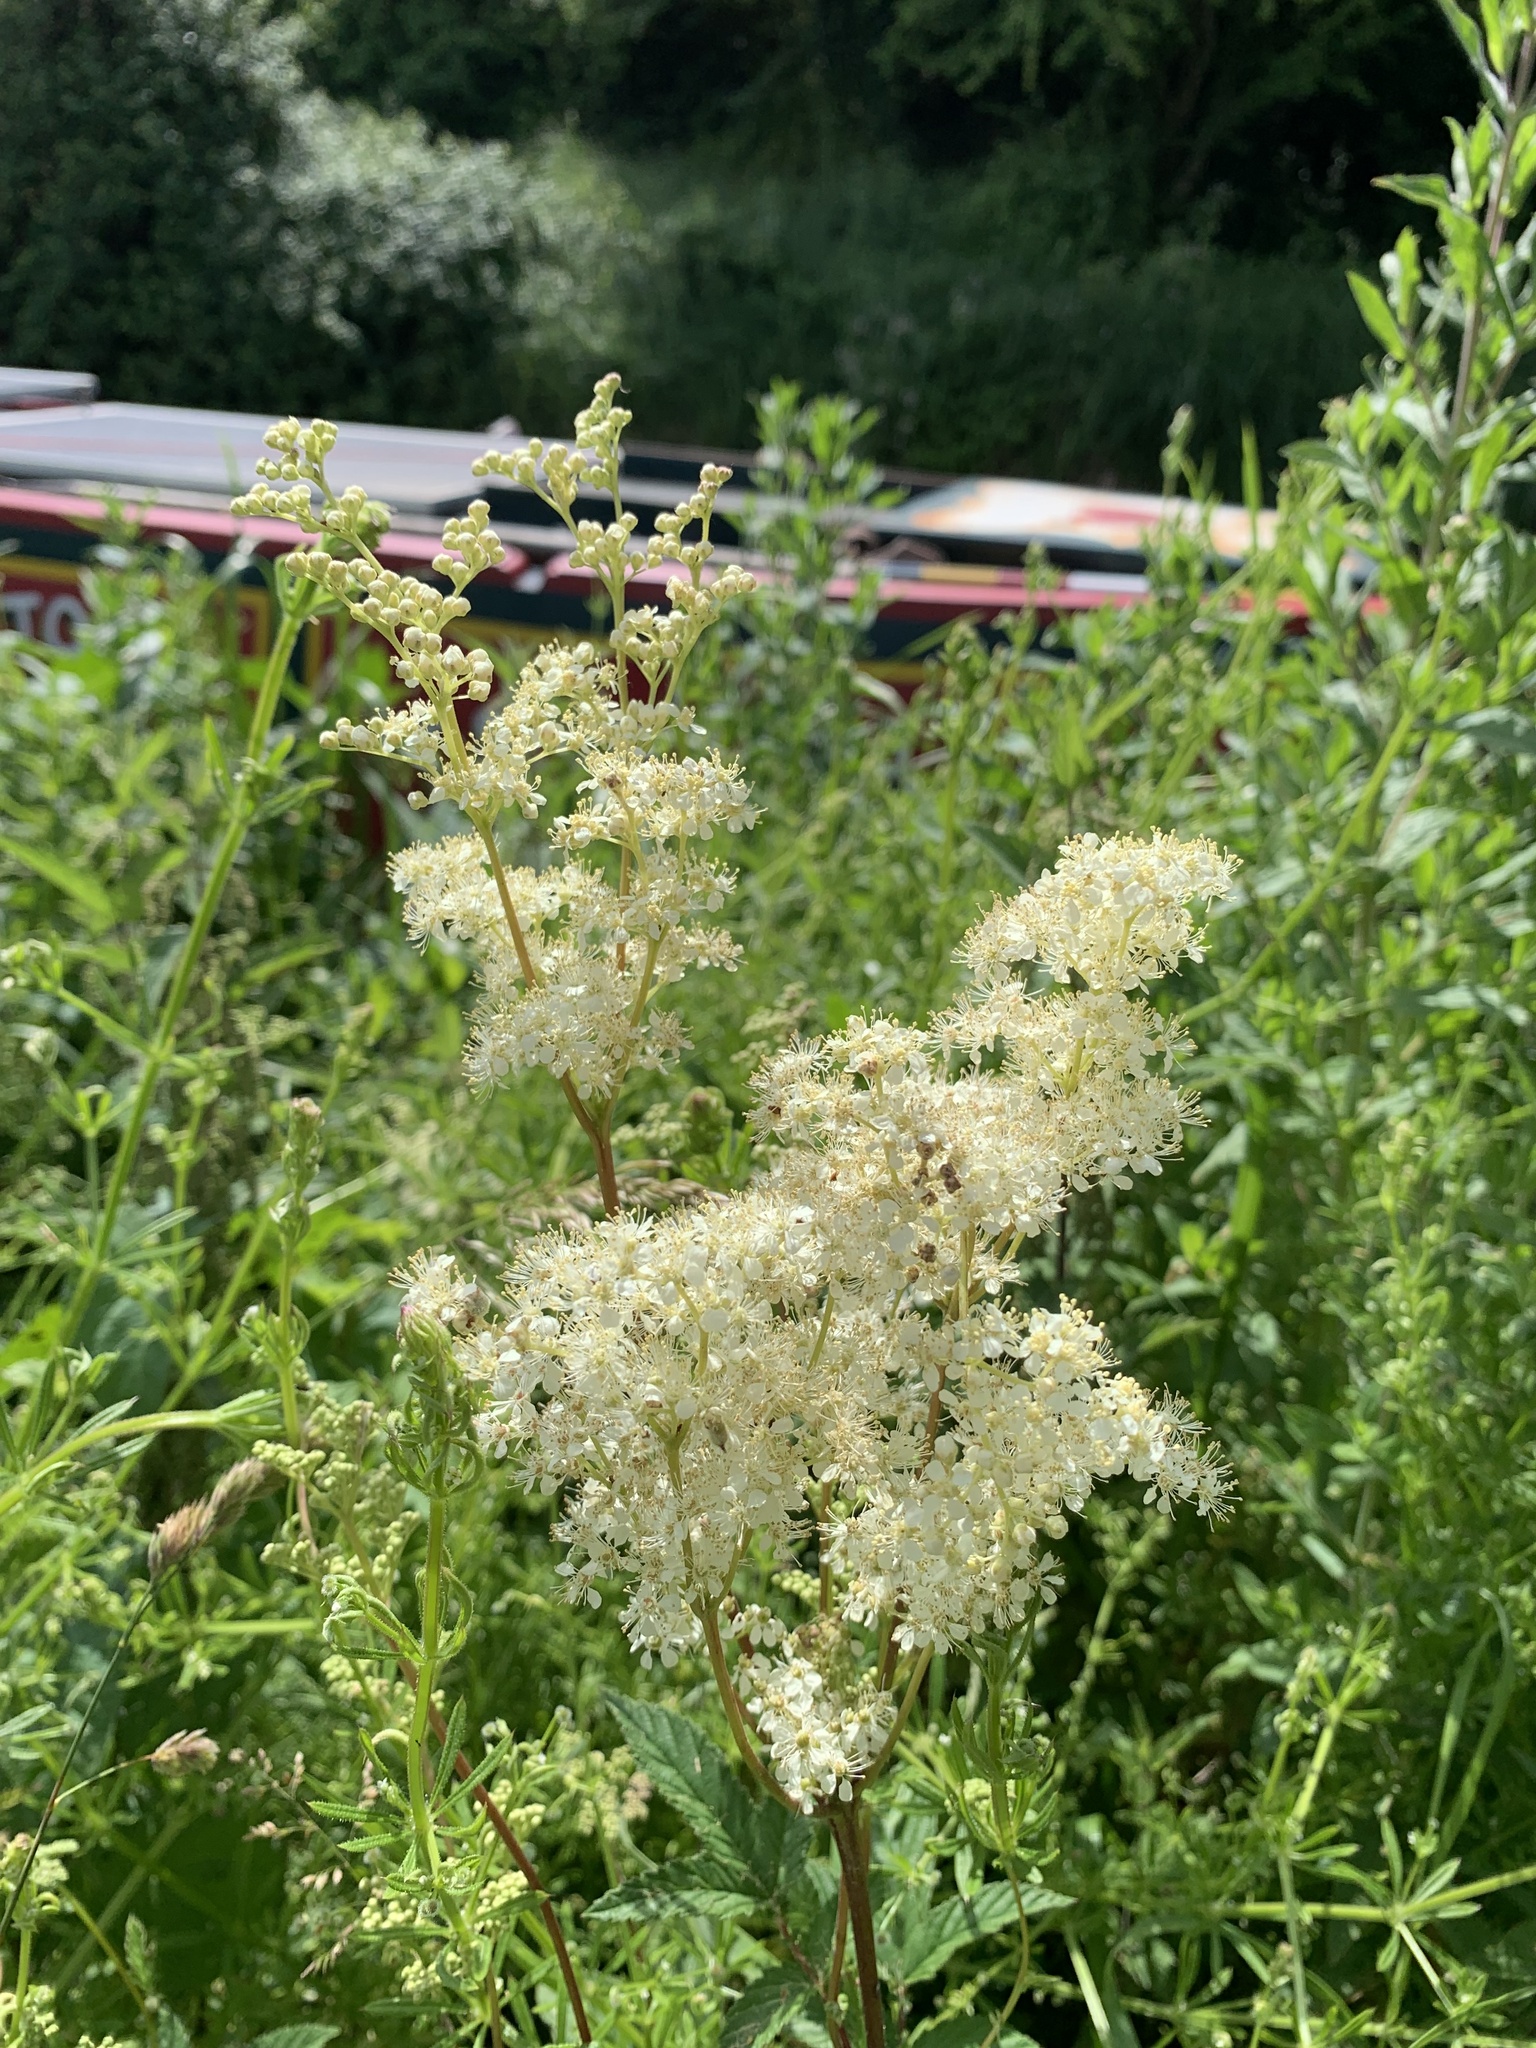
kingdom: Plantae
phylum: Tracheophyta
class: Magnoliopsida
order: Rosales
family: Rosaceae
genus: Filipendula
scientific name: Filipendula ulmaria
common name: Meadowsweet
